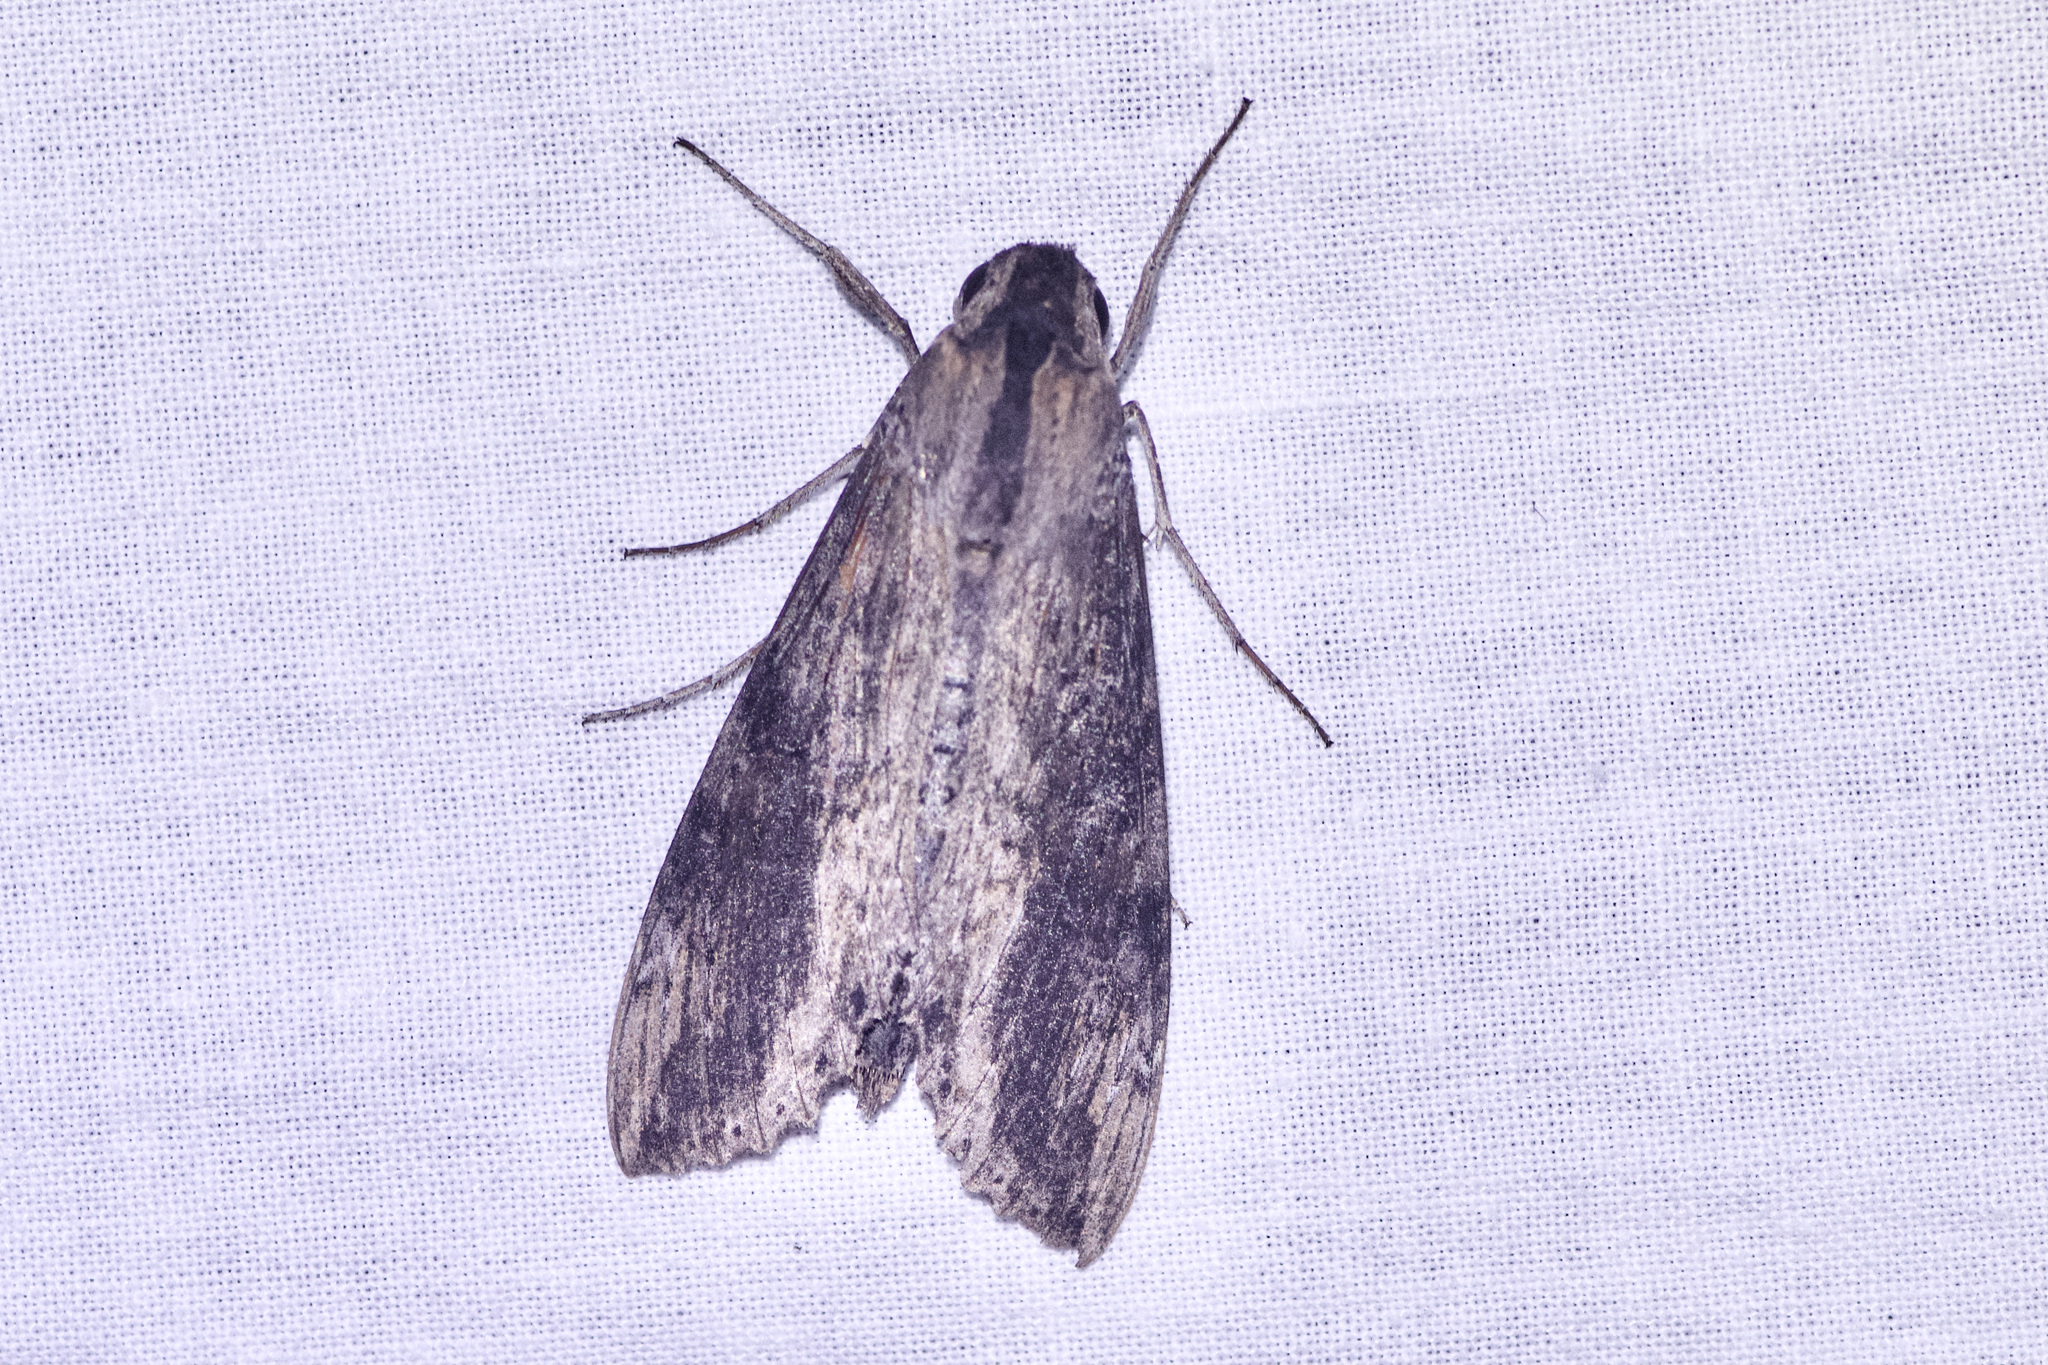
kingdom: Animalia
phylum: Arthropoda
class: Insecta
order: Lepidoptera
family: Sphingidae
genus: Erinnyis
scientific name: Erinnyis crameri
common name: Cramer's sphinx
